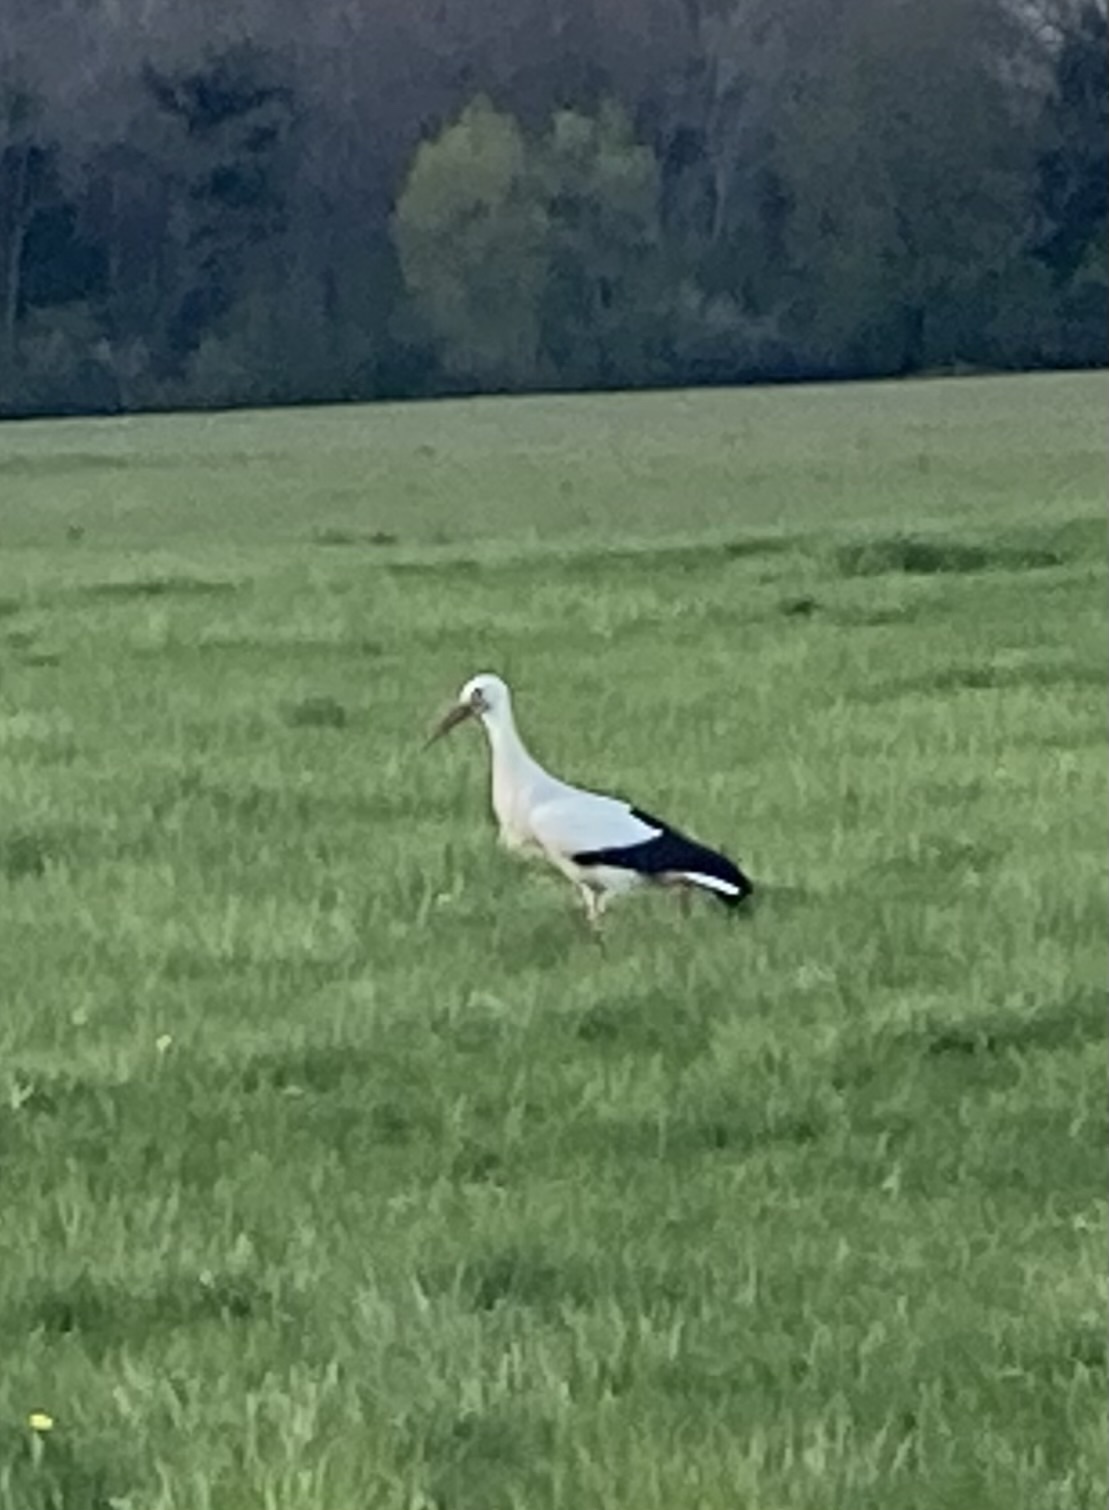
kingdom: Animalia
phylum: Chordata
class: Aves
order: Ciconiiformes
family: Ciconiidae
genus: Ciconia
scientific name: Ciconia ciconia
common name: White stork
